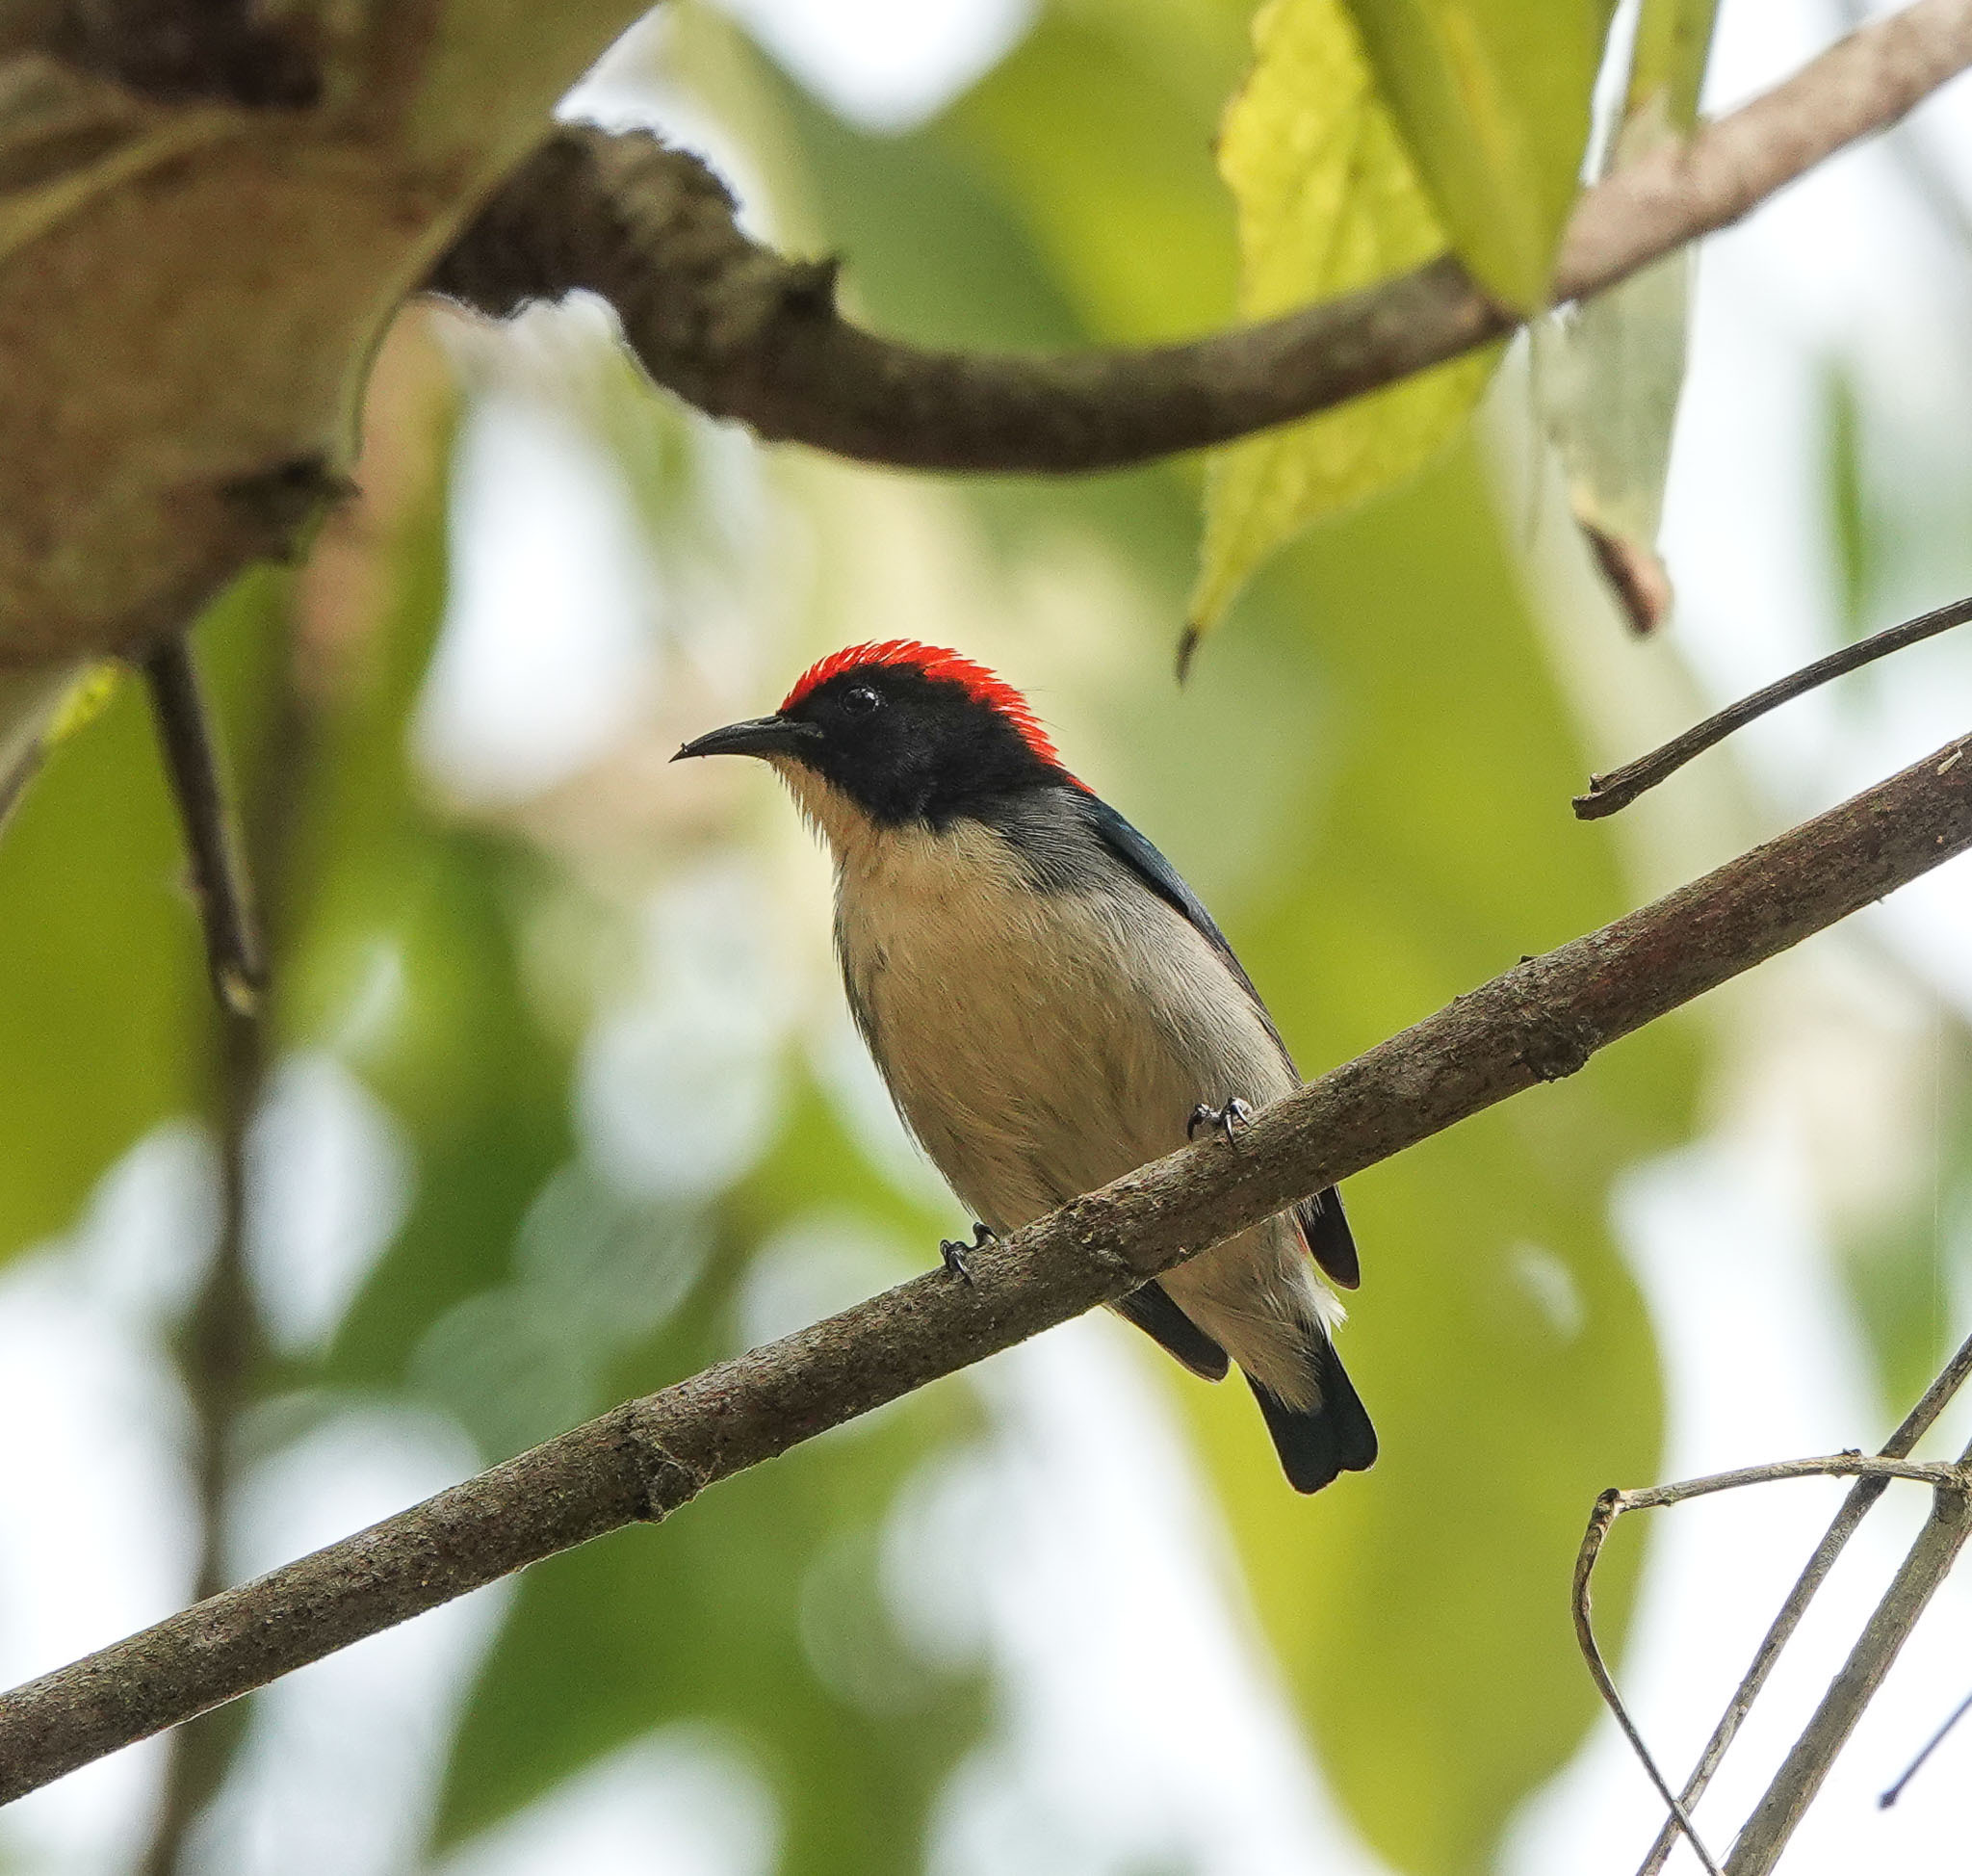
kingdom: Animalia
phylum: Chordata
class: Aves
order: Passeriformes
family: Dicaeidae
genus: Dicaeum
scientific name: Dicaeum cruentatum
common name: Scarlet-backed flowerpecker
